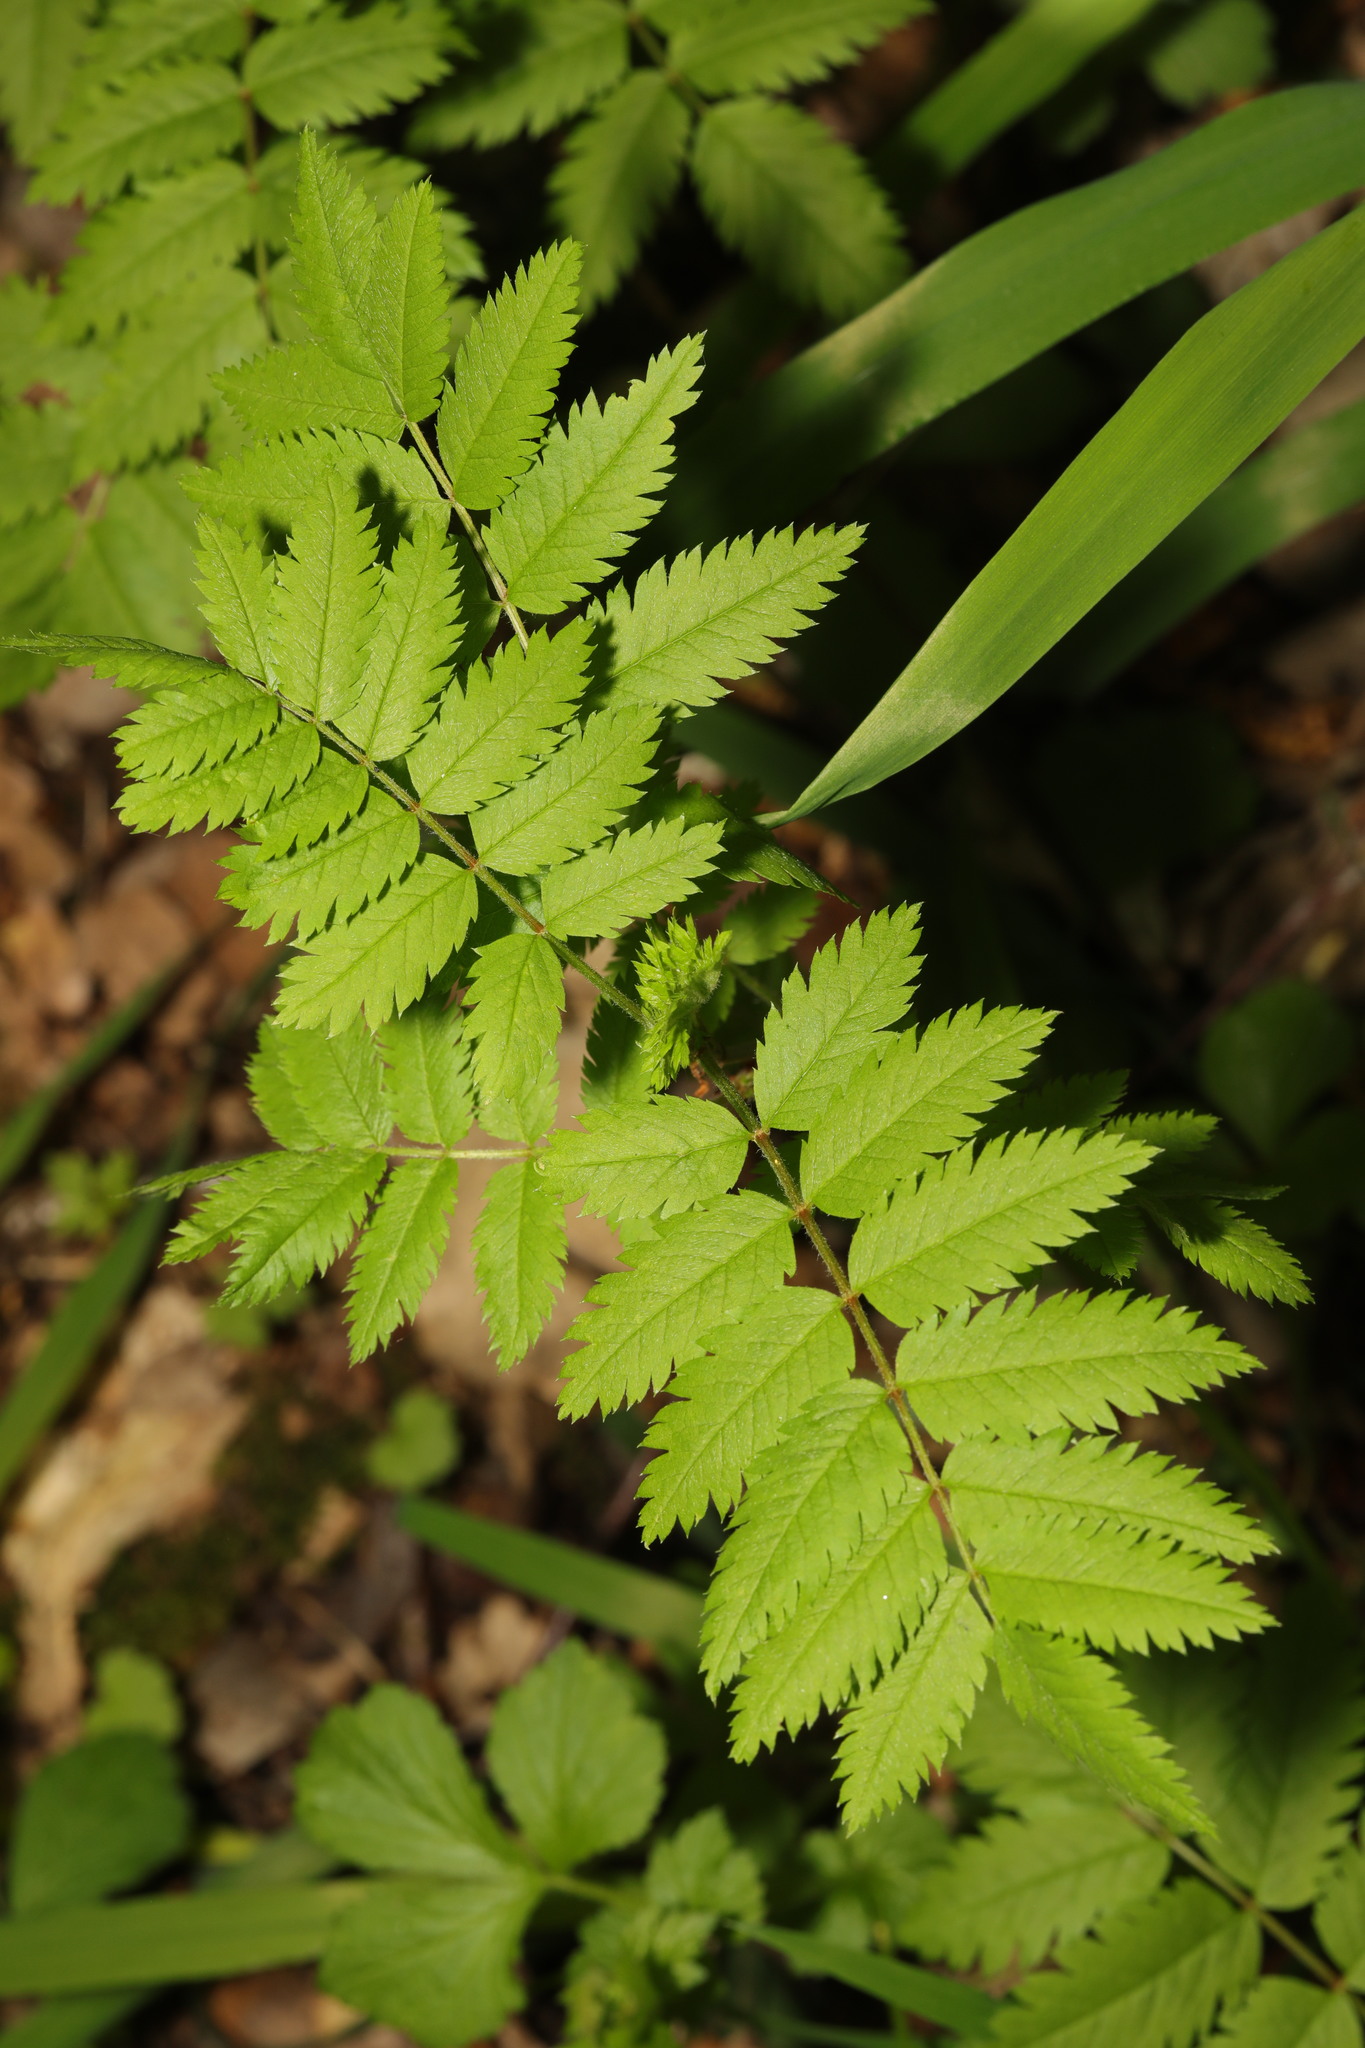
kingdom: Plantae
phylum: Tracheophyta
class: Magnoliopsida
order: Rosales
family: Rosaceae
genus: Sorbus
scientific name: Sorbus aucuparia
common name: Rowan
